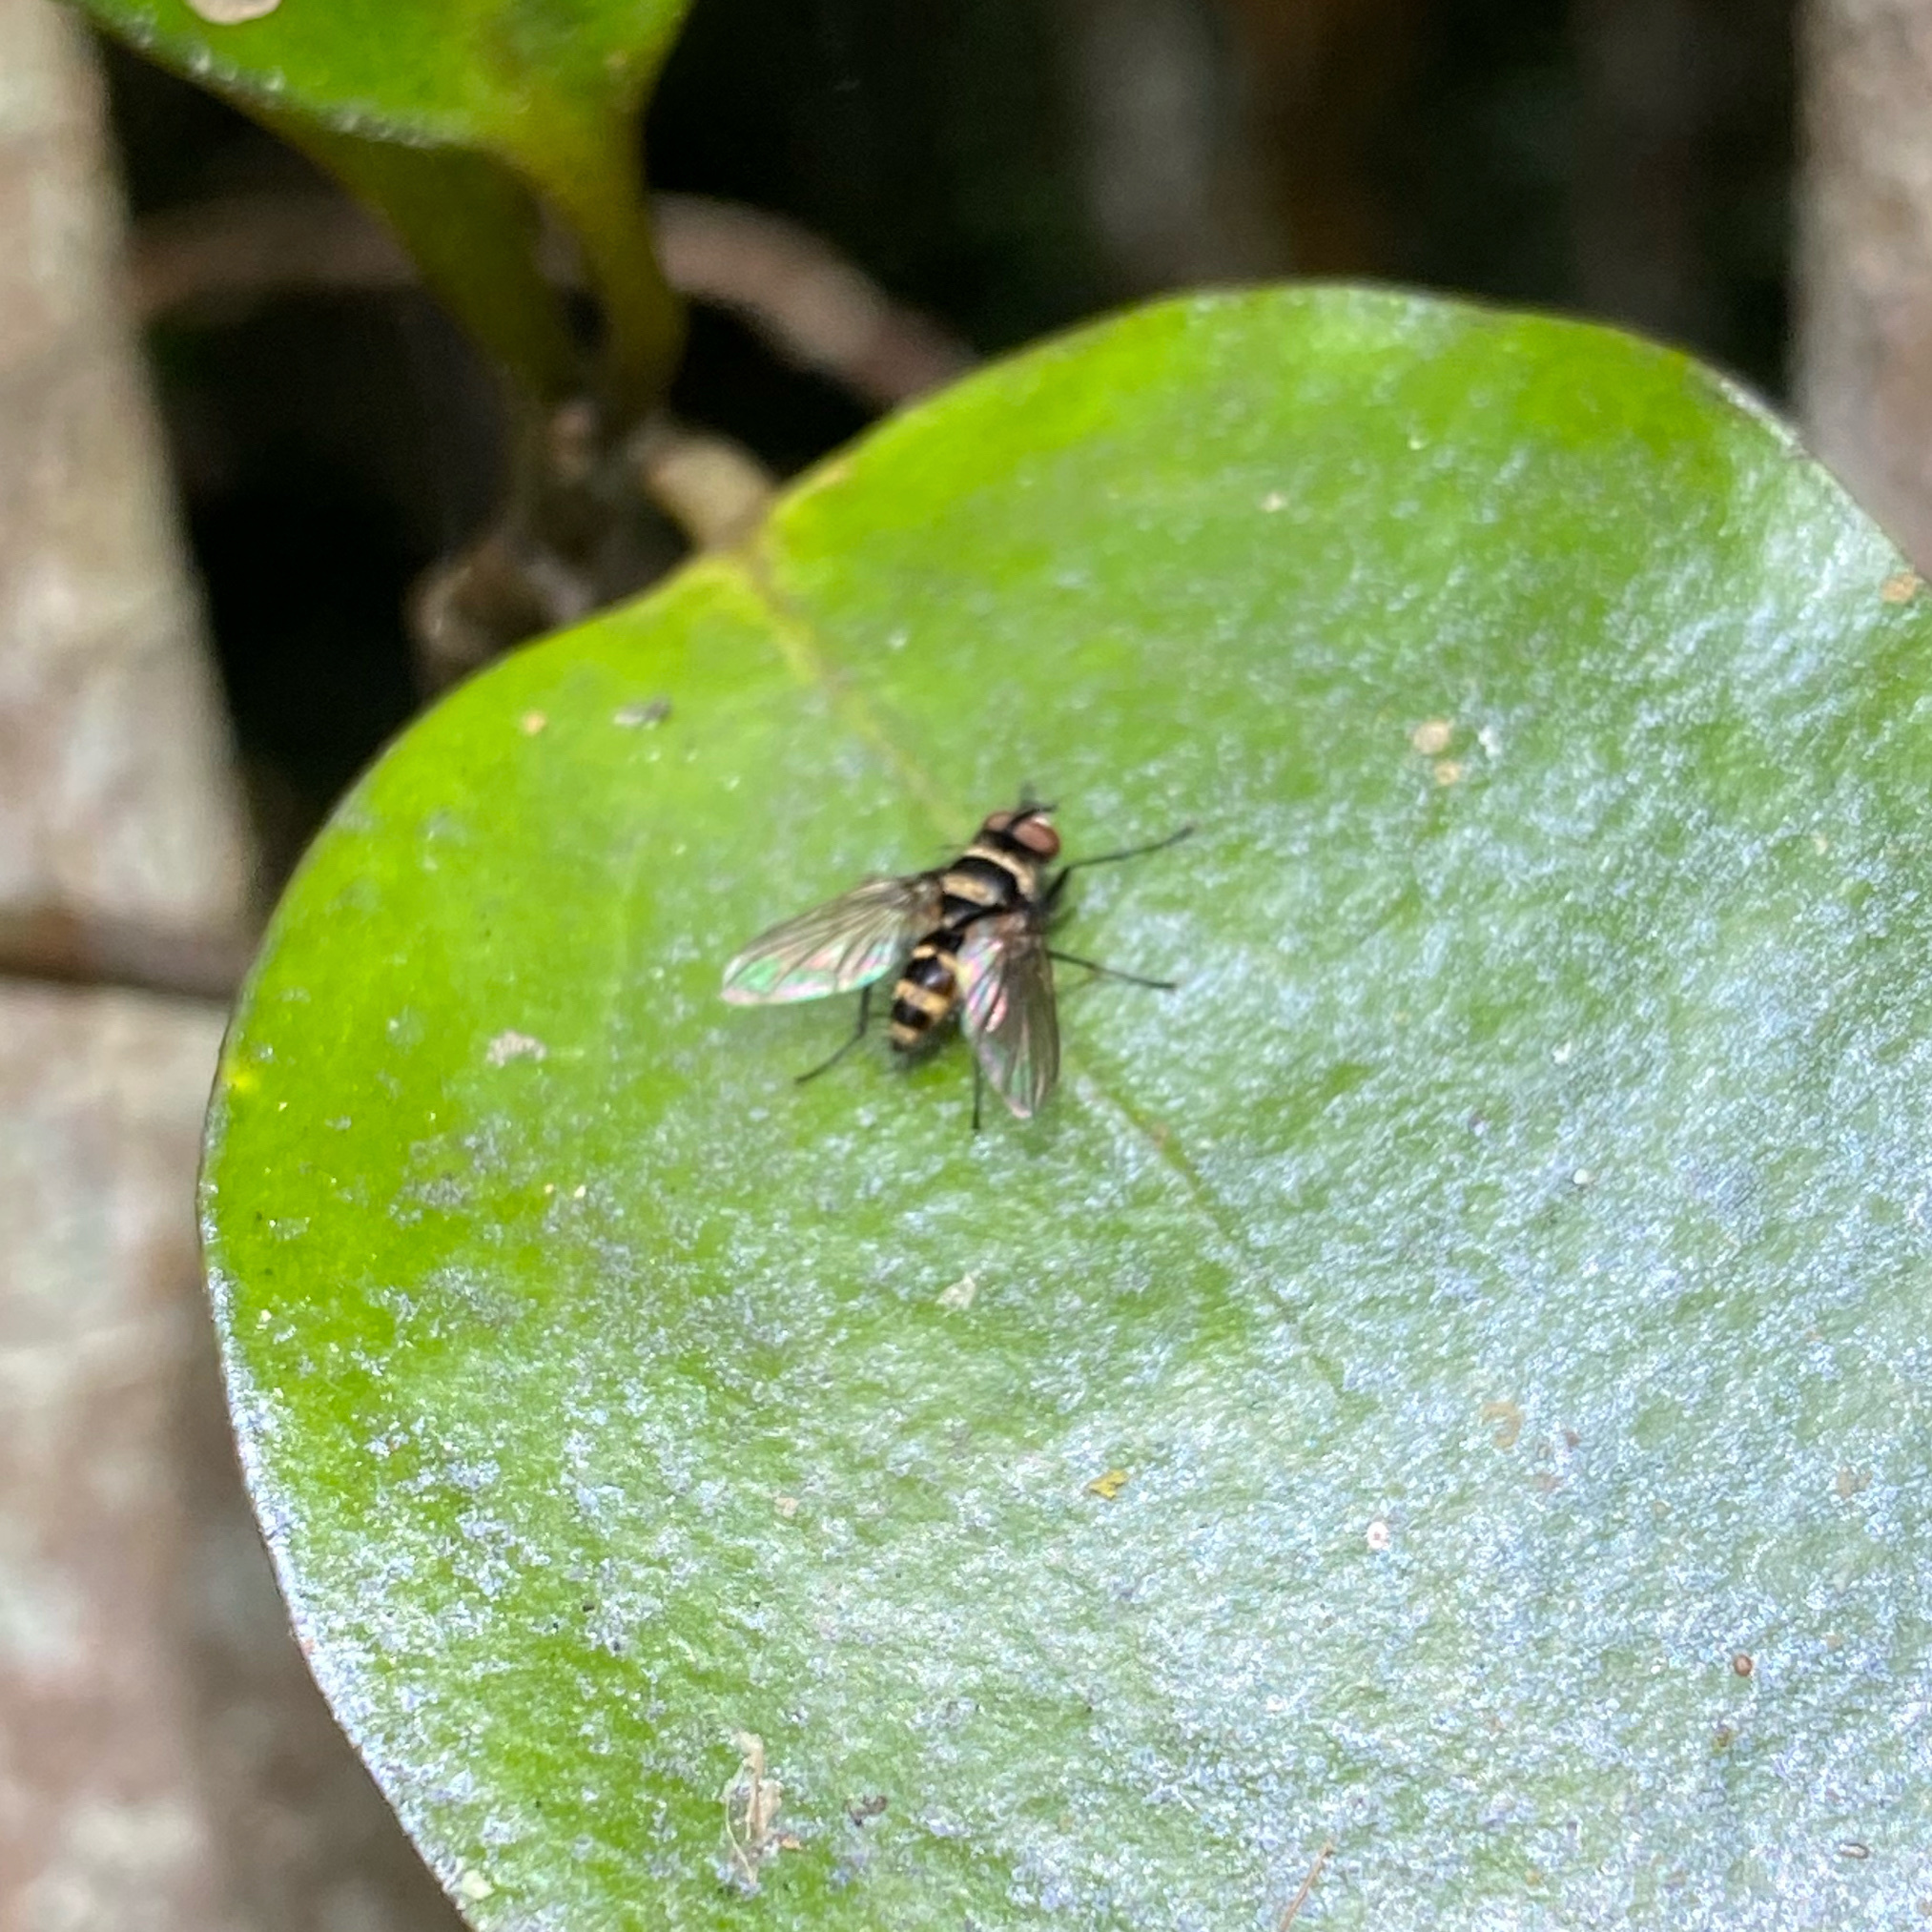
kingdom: Animalia
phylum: Arthropoda
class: Insecta
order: Diptera
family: Tachinidae
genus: Trigonospila
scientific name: Trigonospila brevifacies
